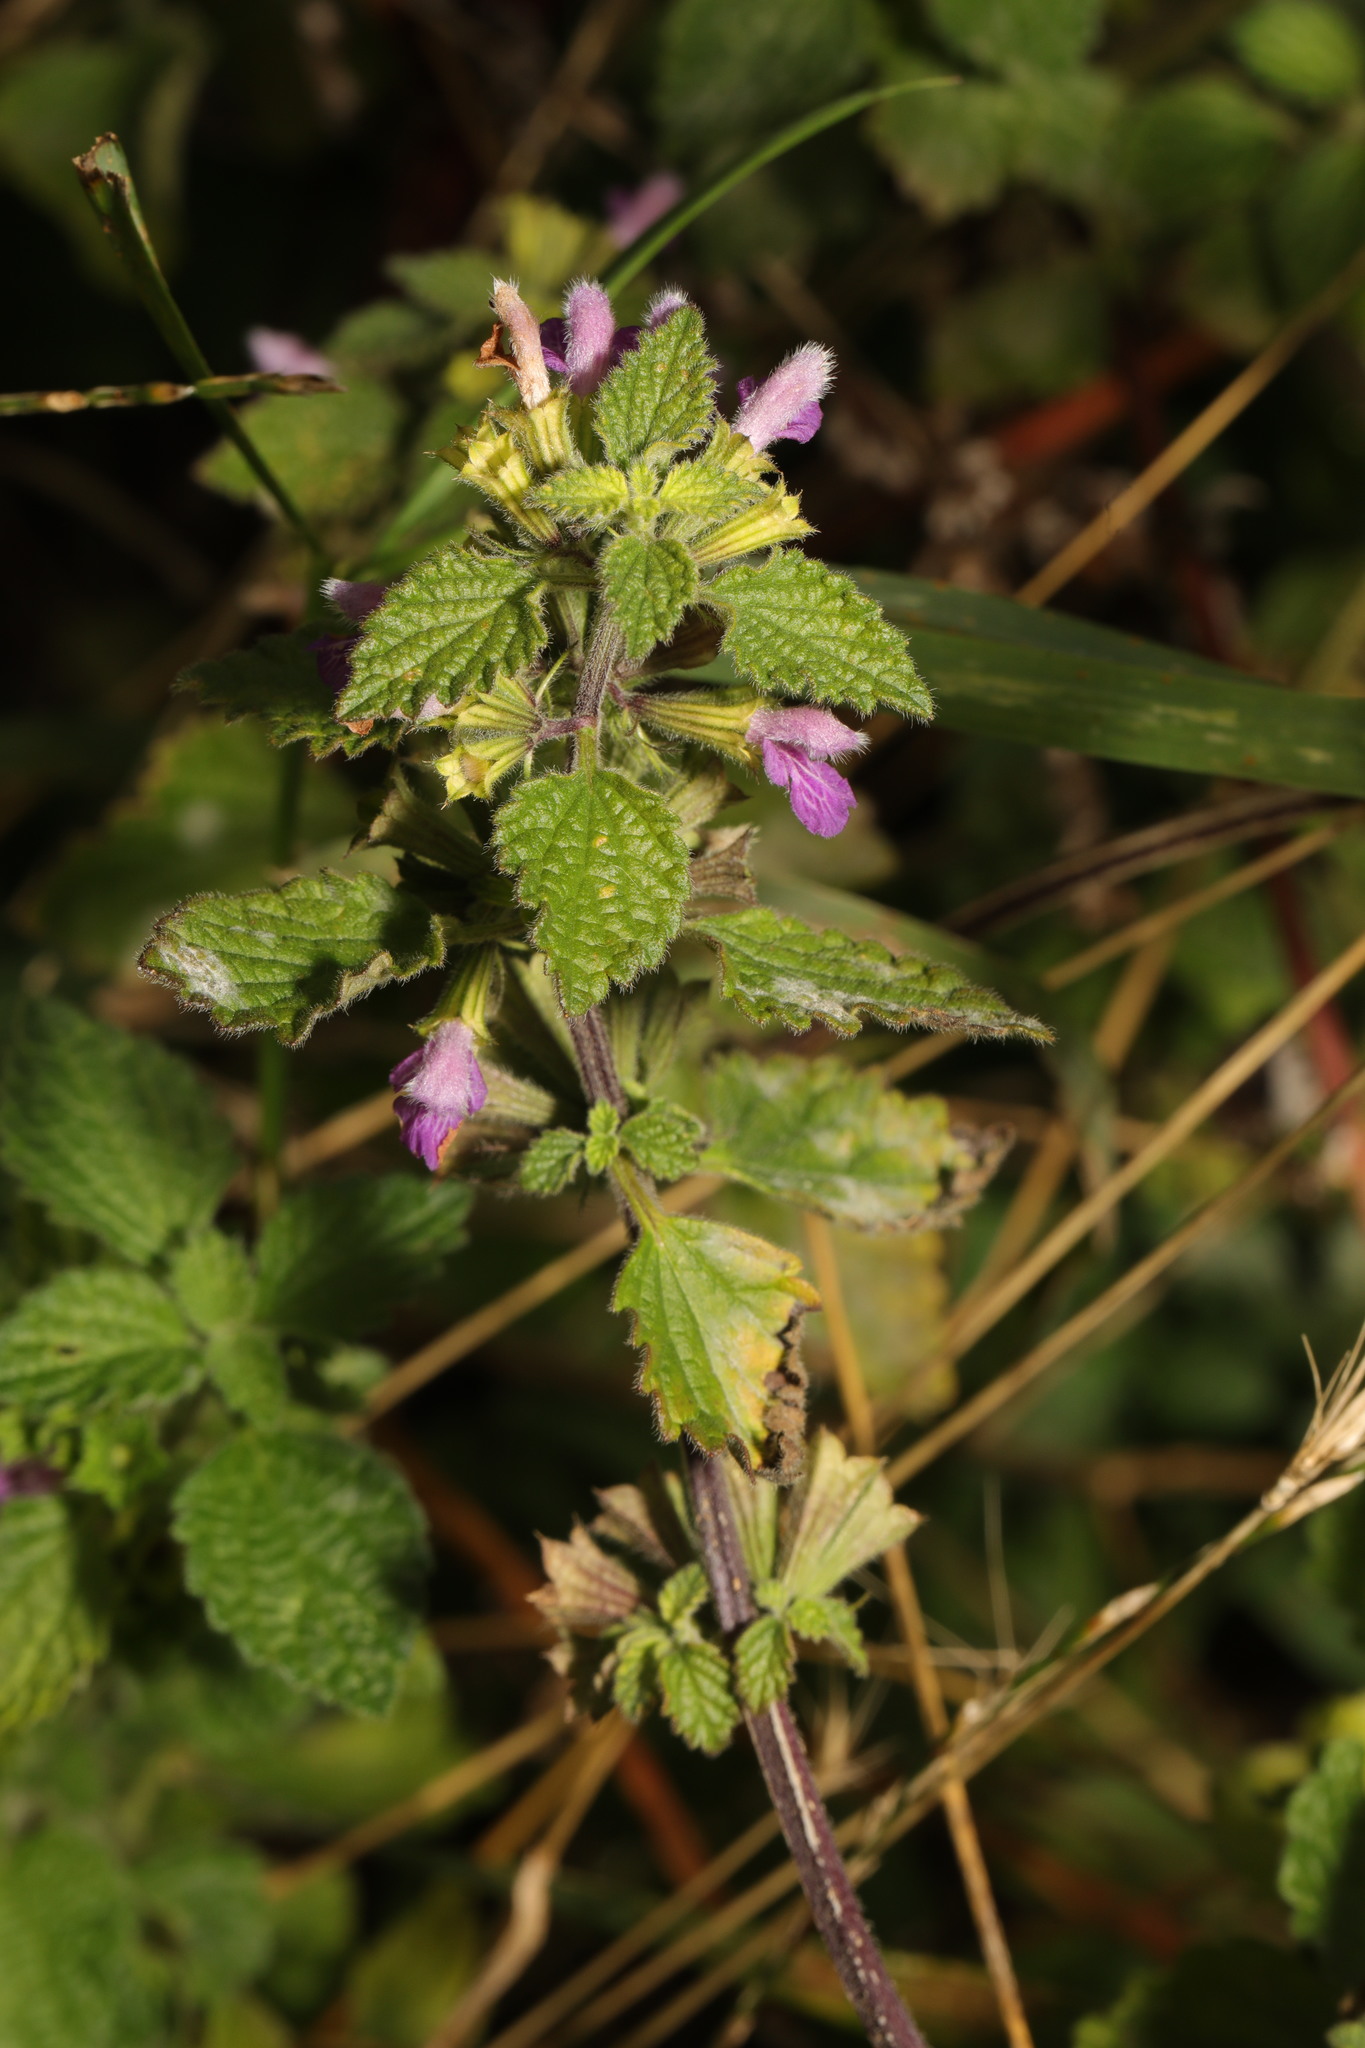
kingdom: Plantae
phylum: Tracheophyta
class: Magnoliopsida
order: Lamiales
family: Lamiaceae
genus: Ballota
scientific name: Ballota nigra
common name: Black horehound
